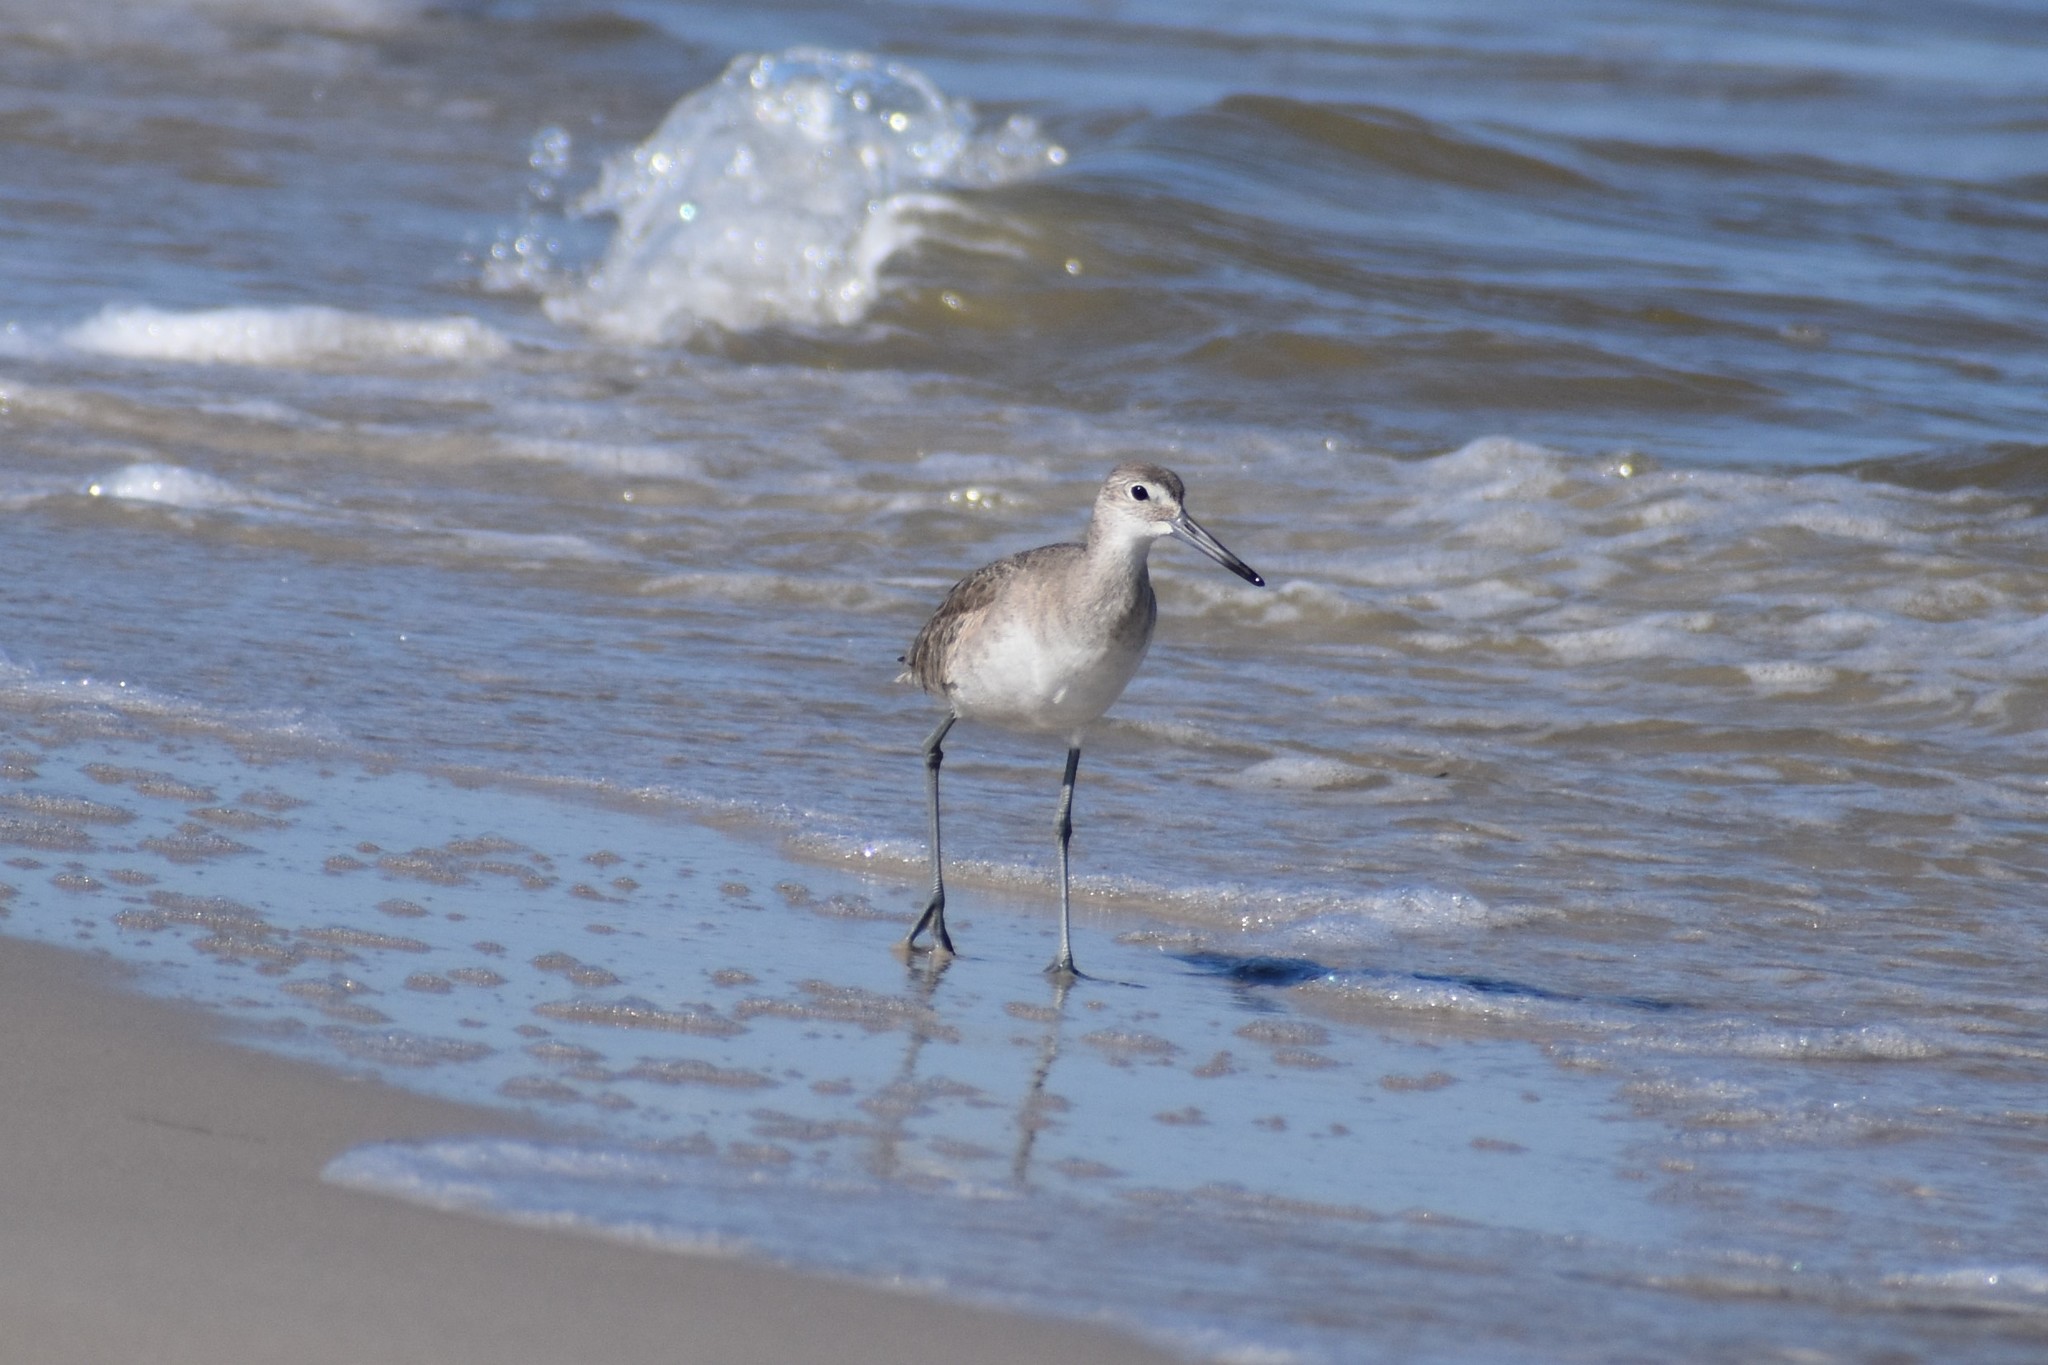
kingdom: Animalia
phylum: Chordata
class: Aves
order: Charadriiformes
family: Scolopacidae
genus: Tringa
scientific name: Tringa semipalmata
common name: Willet
